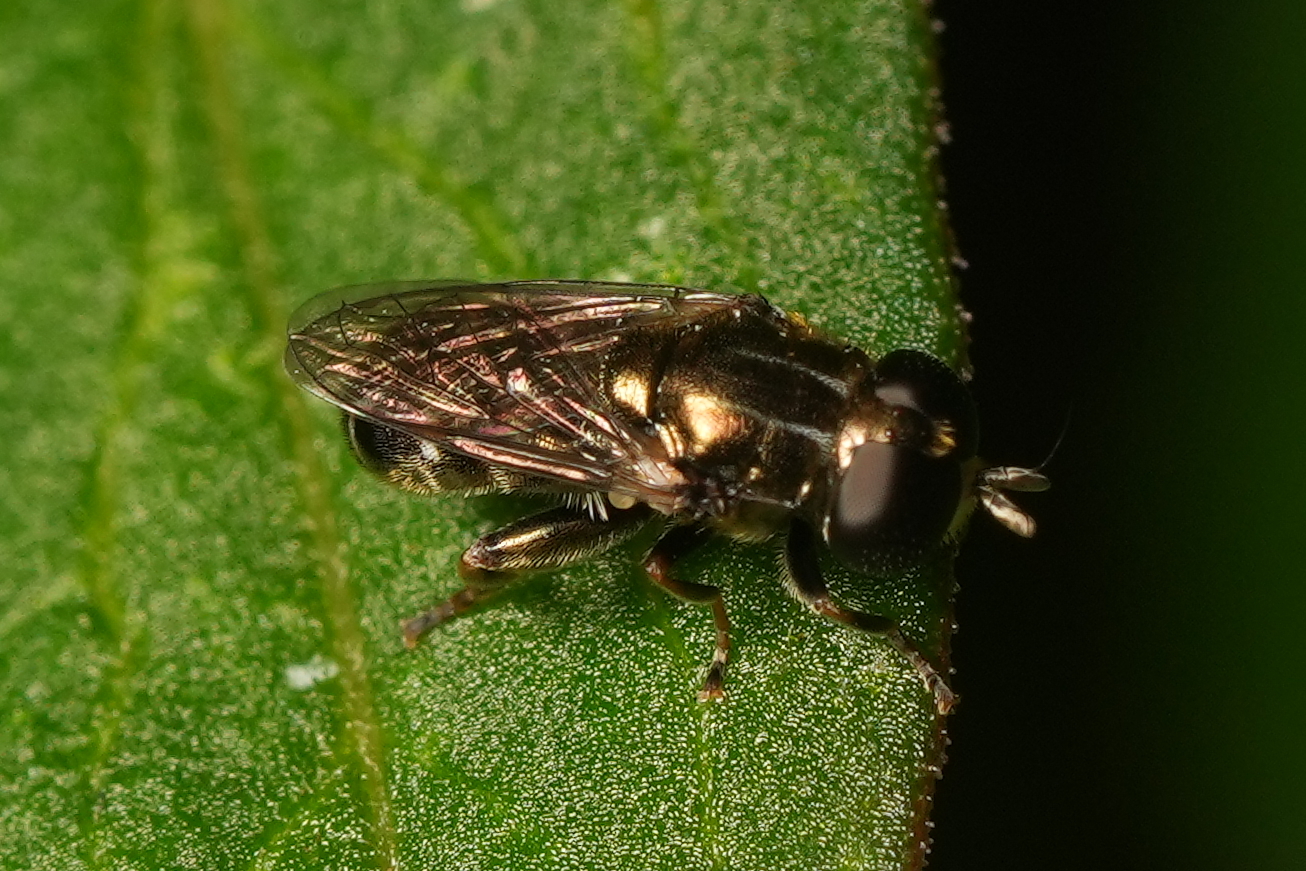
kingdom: Animalia
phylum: Arthropoda
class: Insecta
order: Diptera
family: Syrphidae
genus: Eumerus
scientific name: Eumerus
